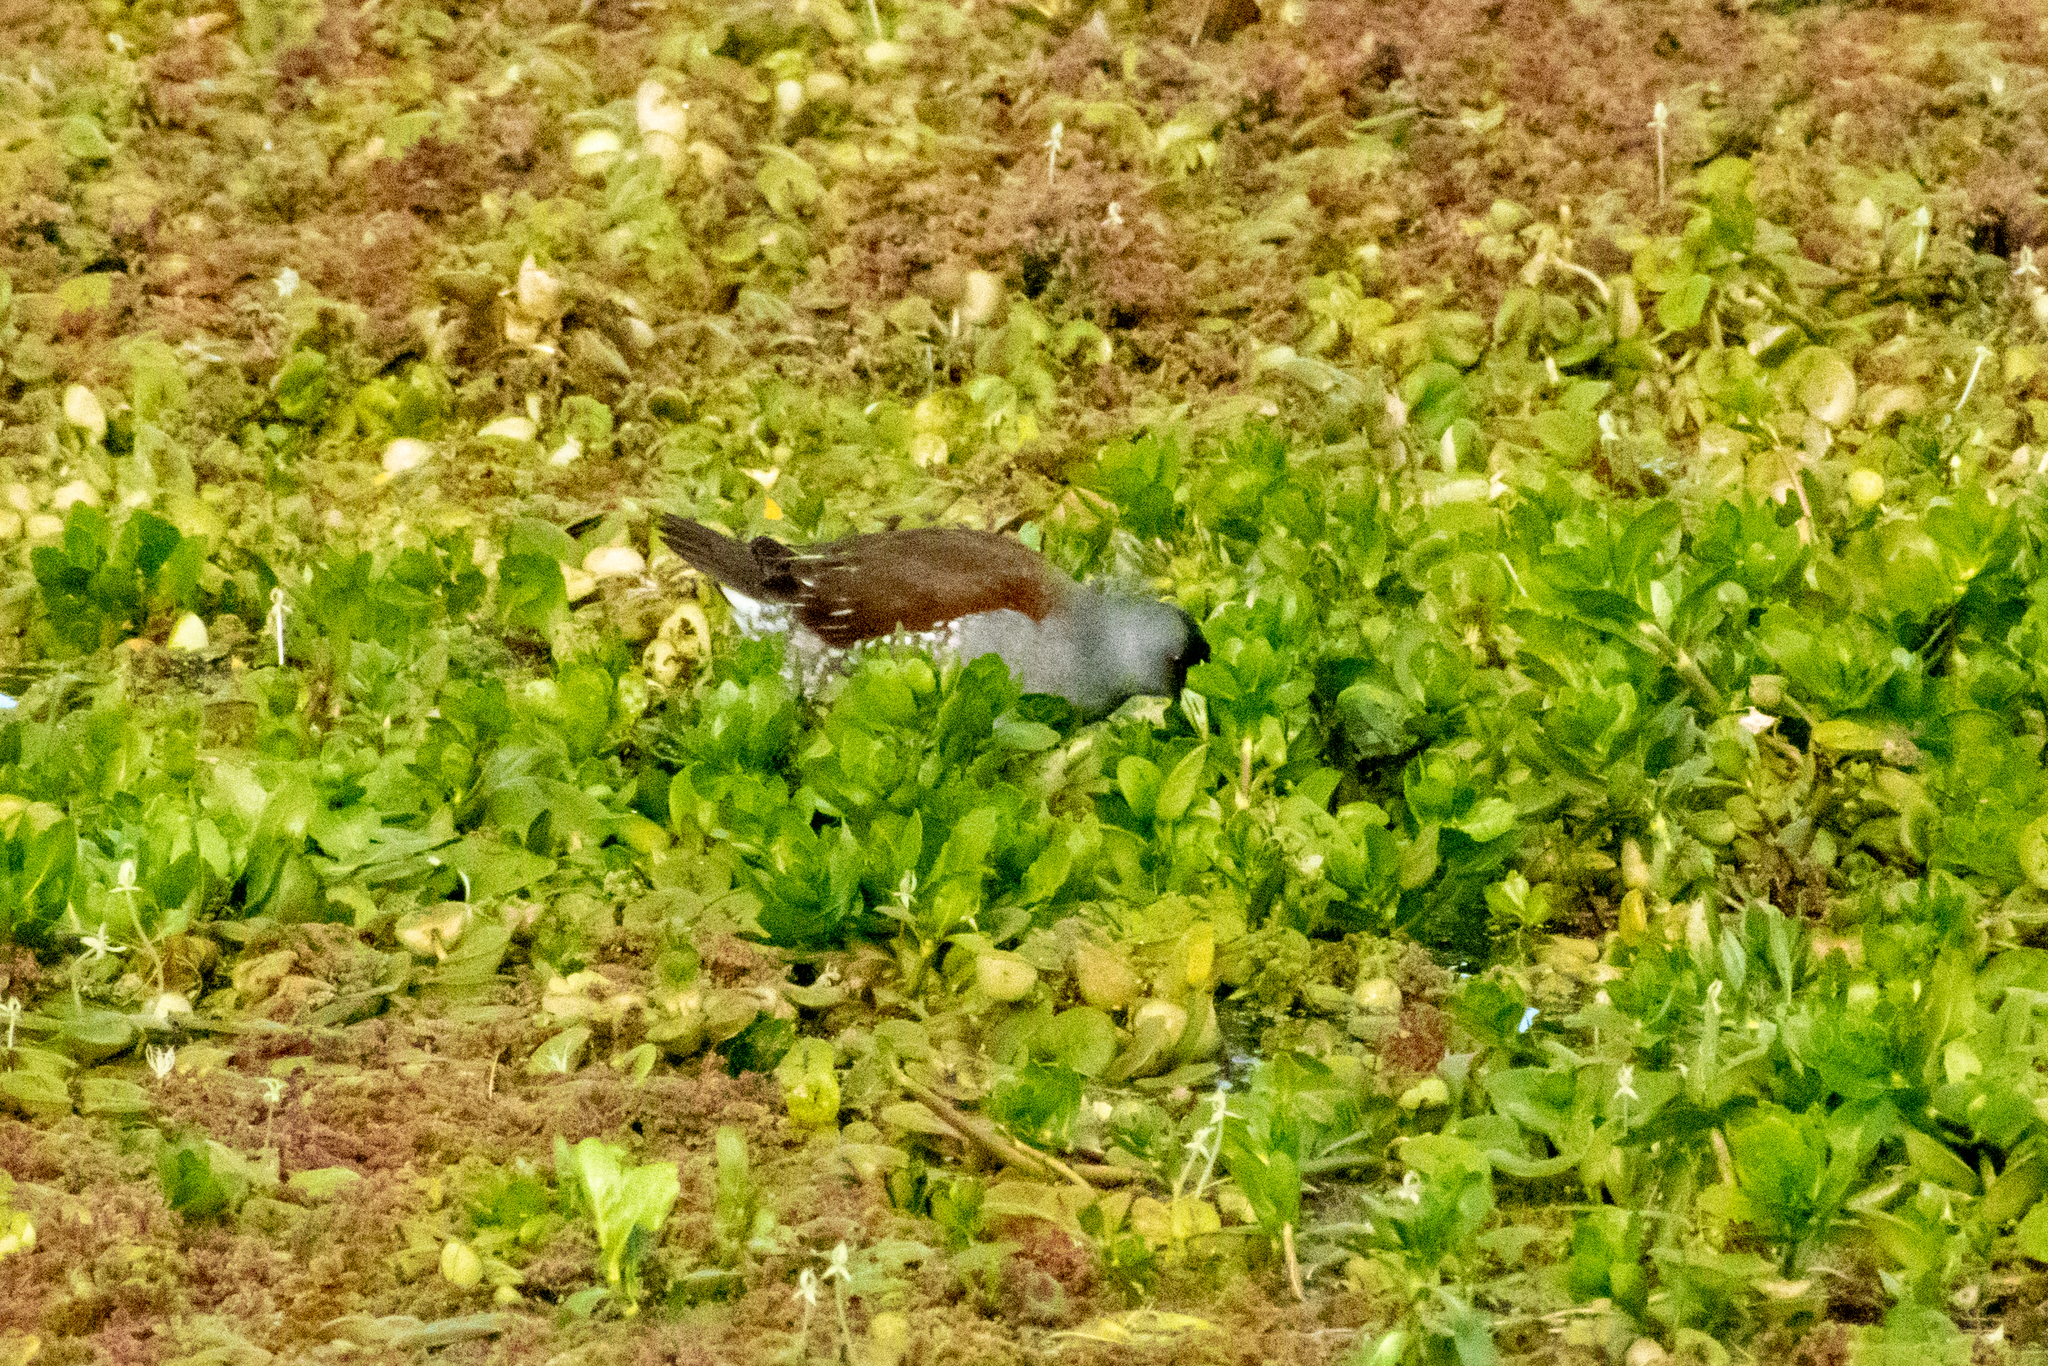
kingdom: Animalia
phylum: Chordata
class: Aves
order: Gruiformes
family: Rallidae
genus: Gallinula
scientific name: Gallinula melanops
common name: Spot-flanked gallinule
